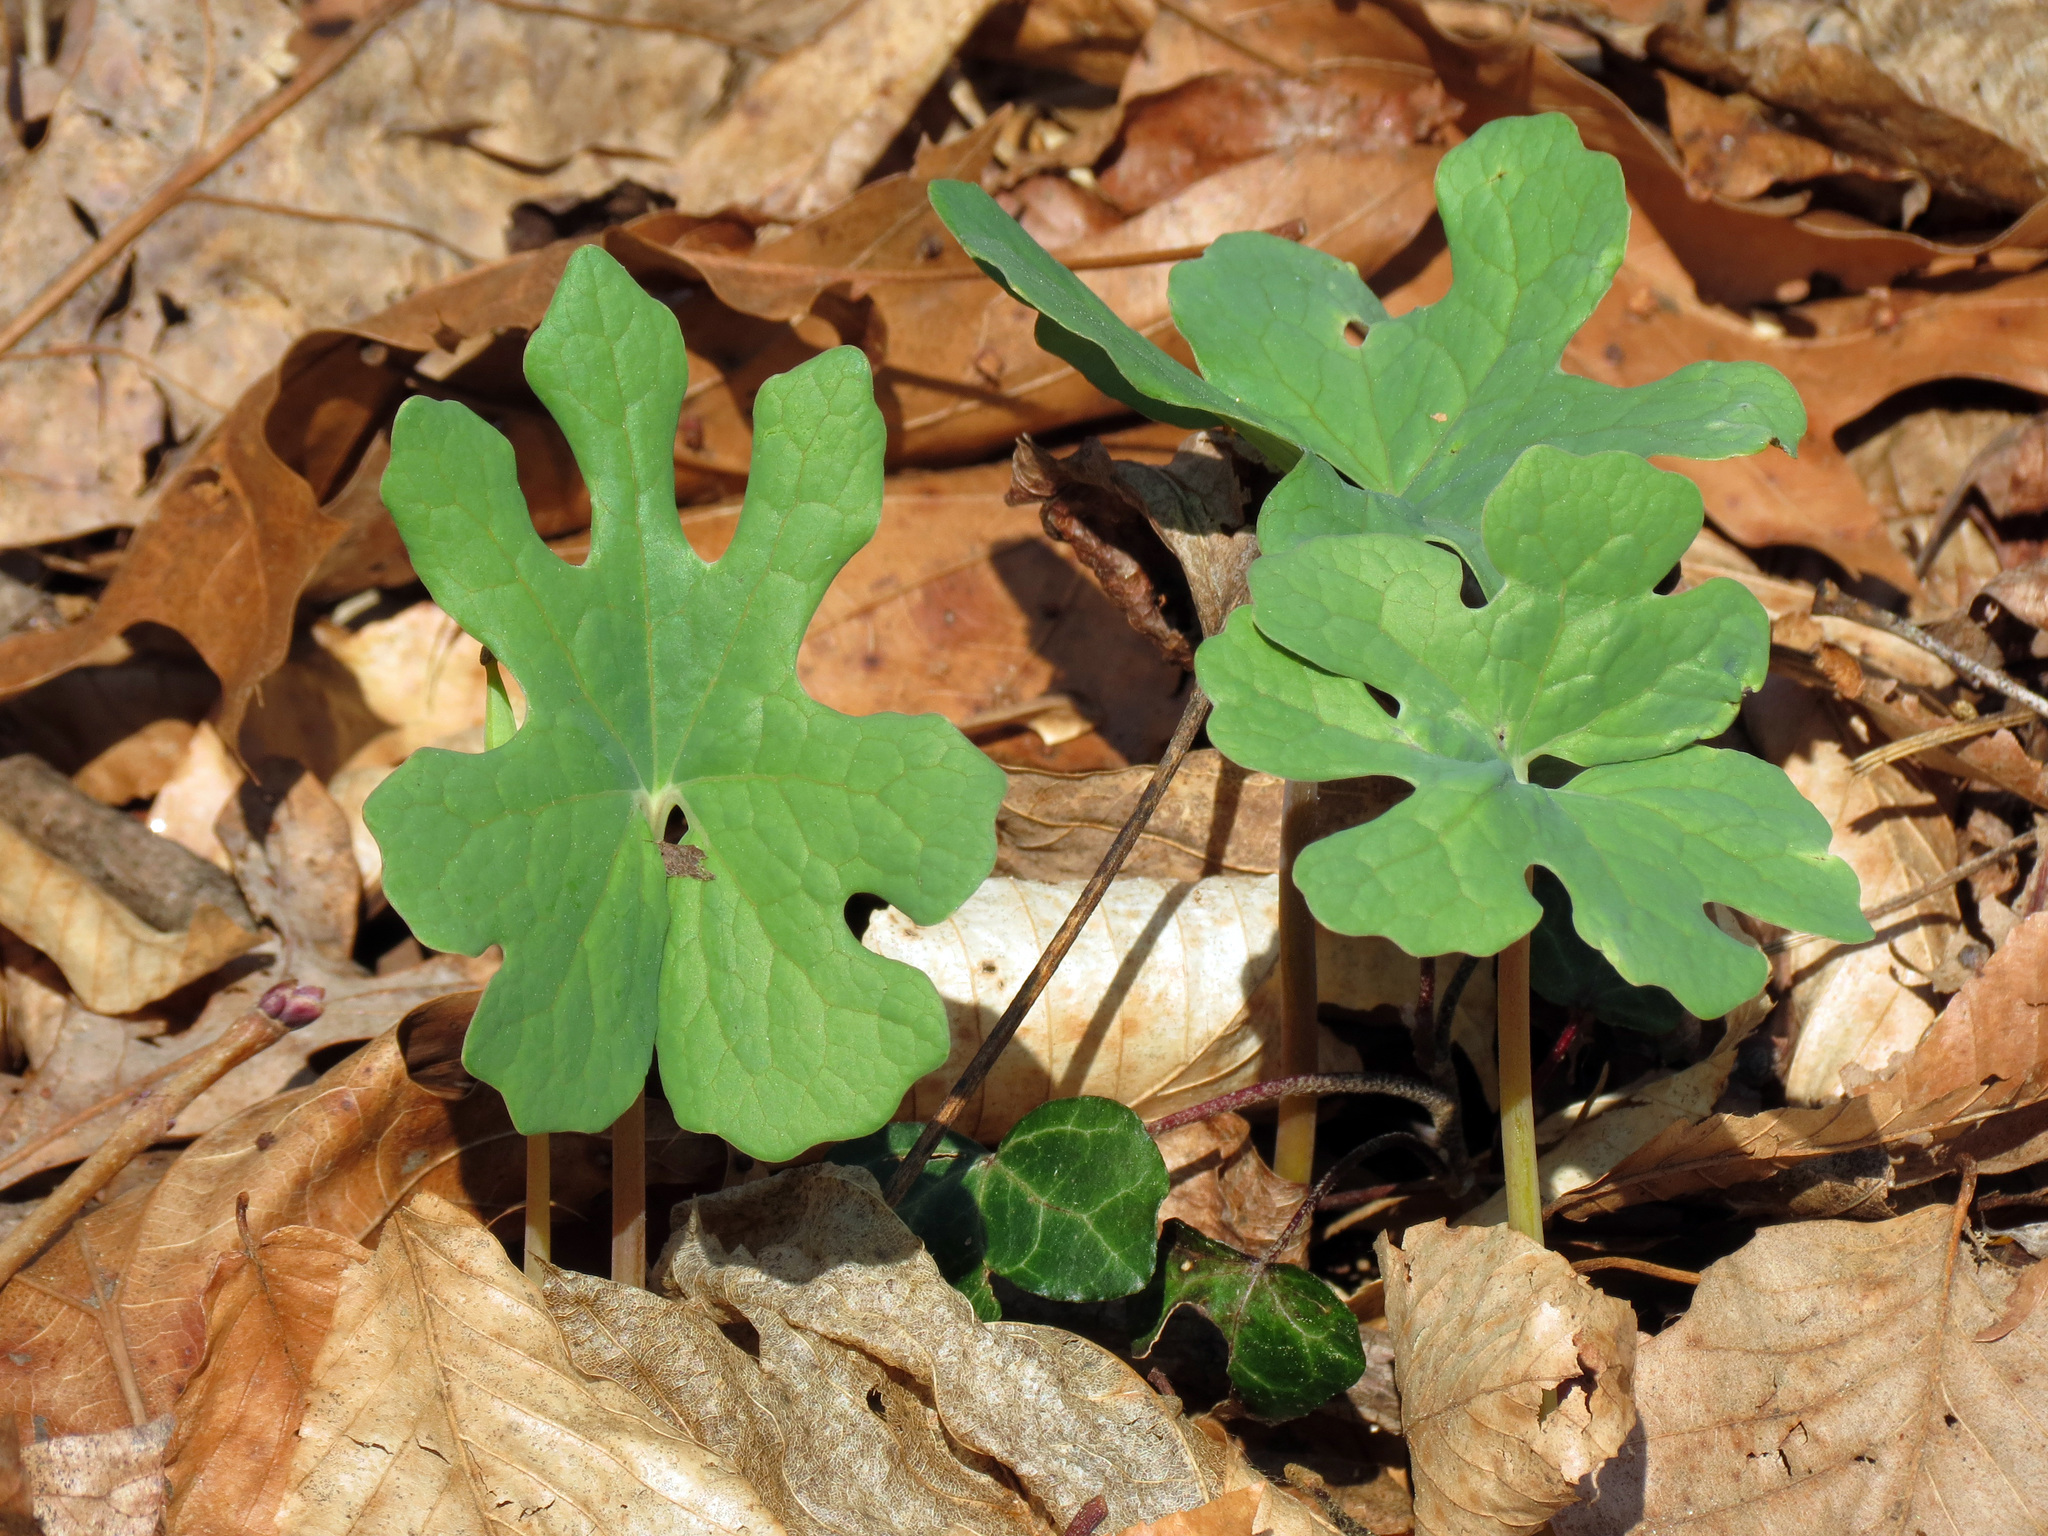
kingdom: Plantae
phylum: Tracheophyta
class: Magnoliopsida
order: Ranunculales
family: Papaveraceae
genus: Sanguinaria
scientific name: Sanguinaria canadensis
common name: Bloodroot
